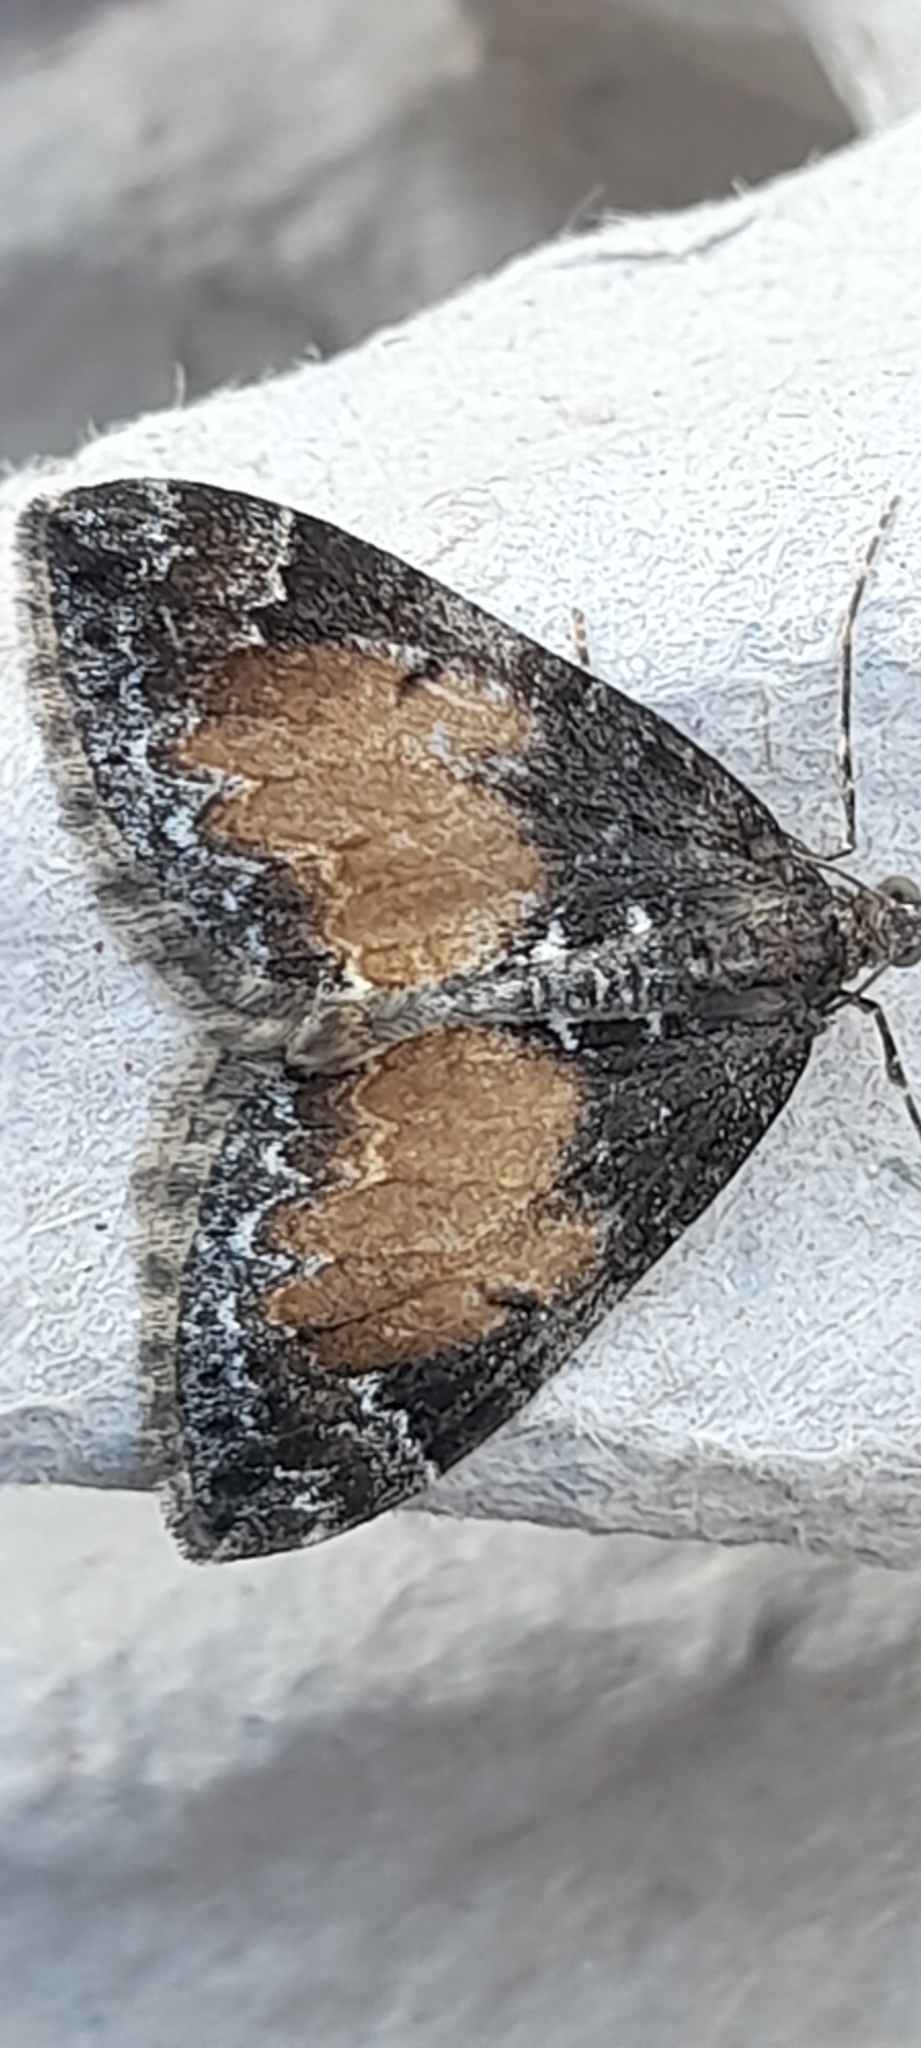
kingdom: Animalia
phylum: Arthropoda
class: Insecta
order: Lepidoptera
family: Geometridae
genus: Dysstroma
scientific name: Dysstroma truncata
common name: Common marbled carpet
